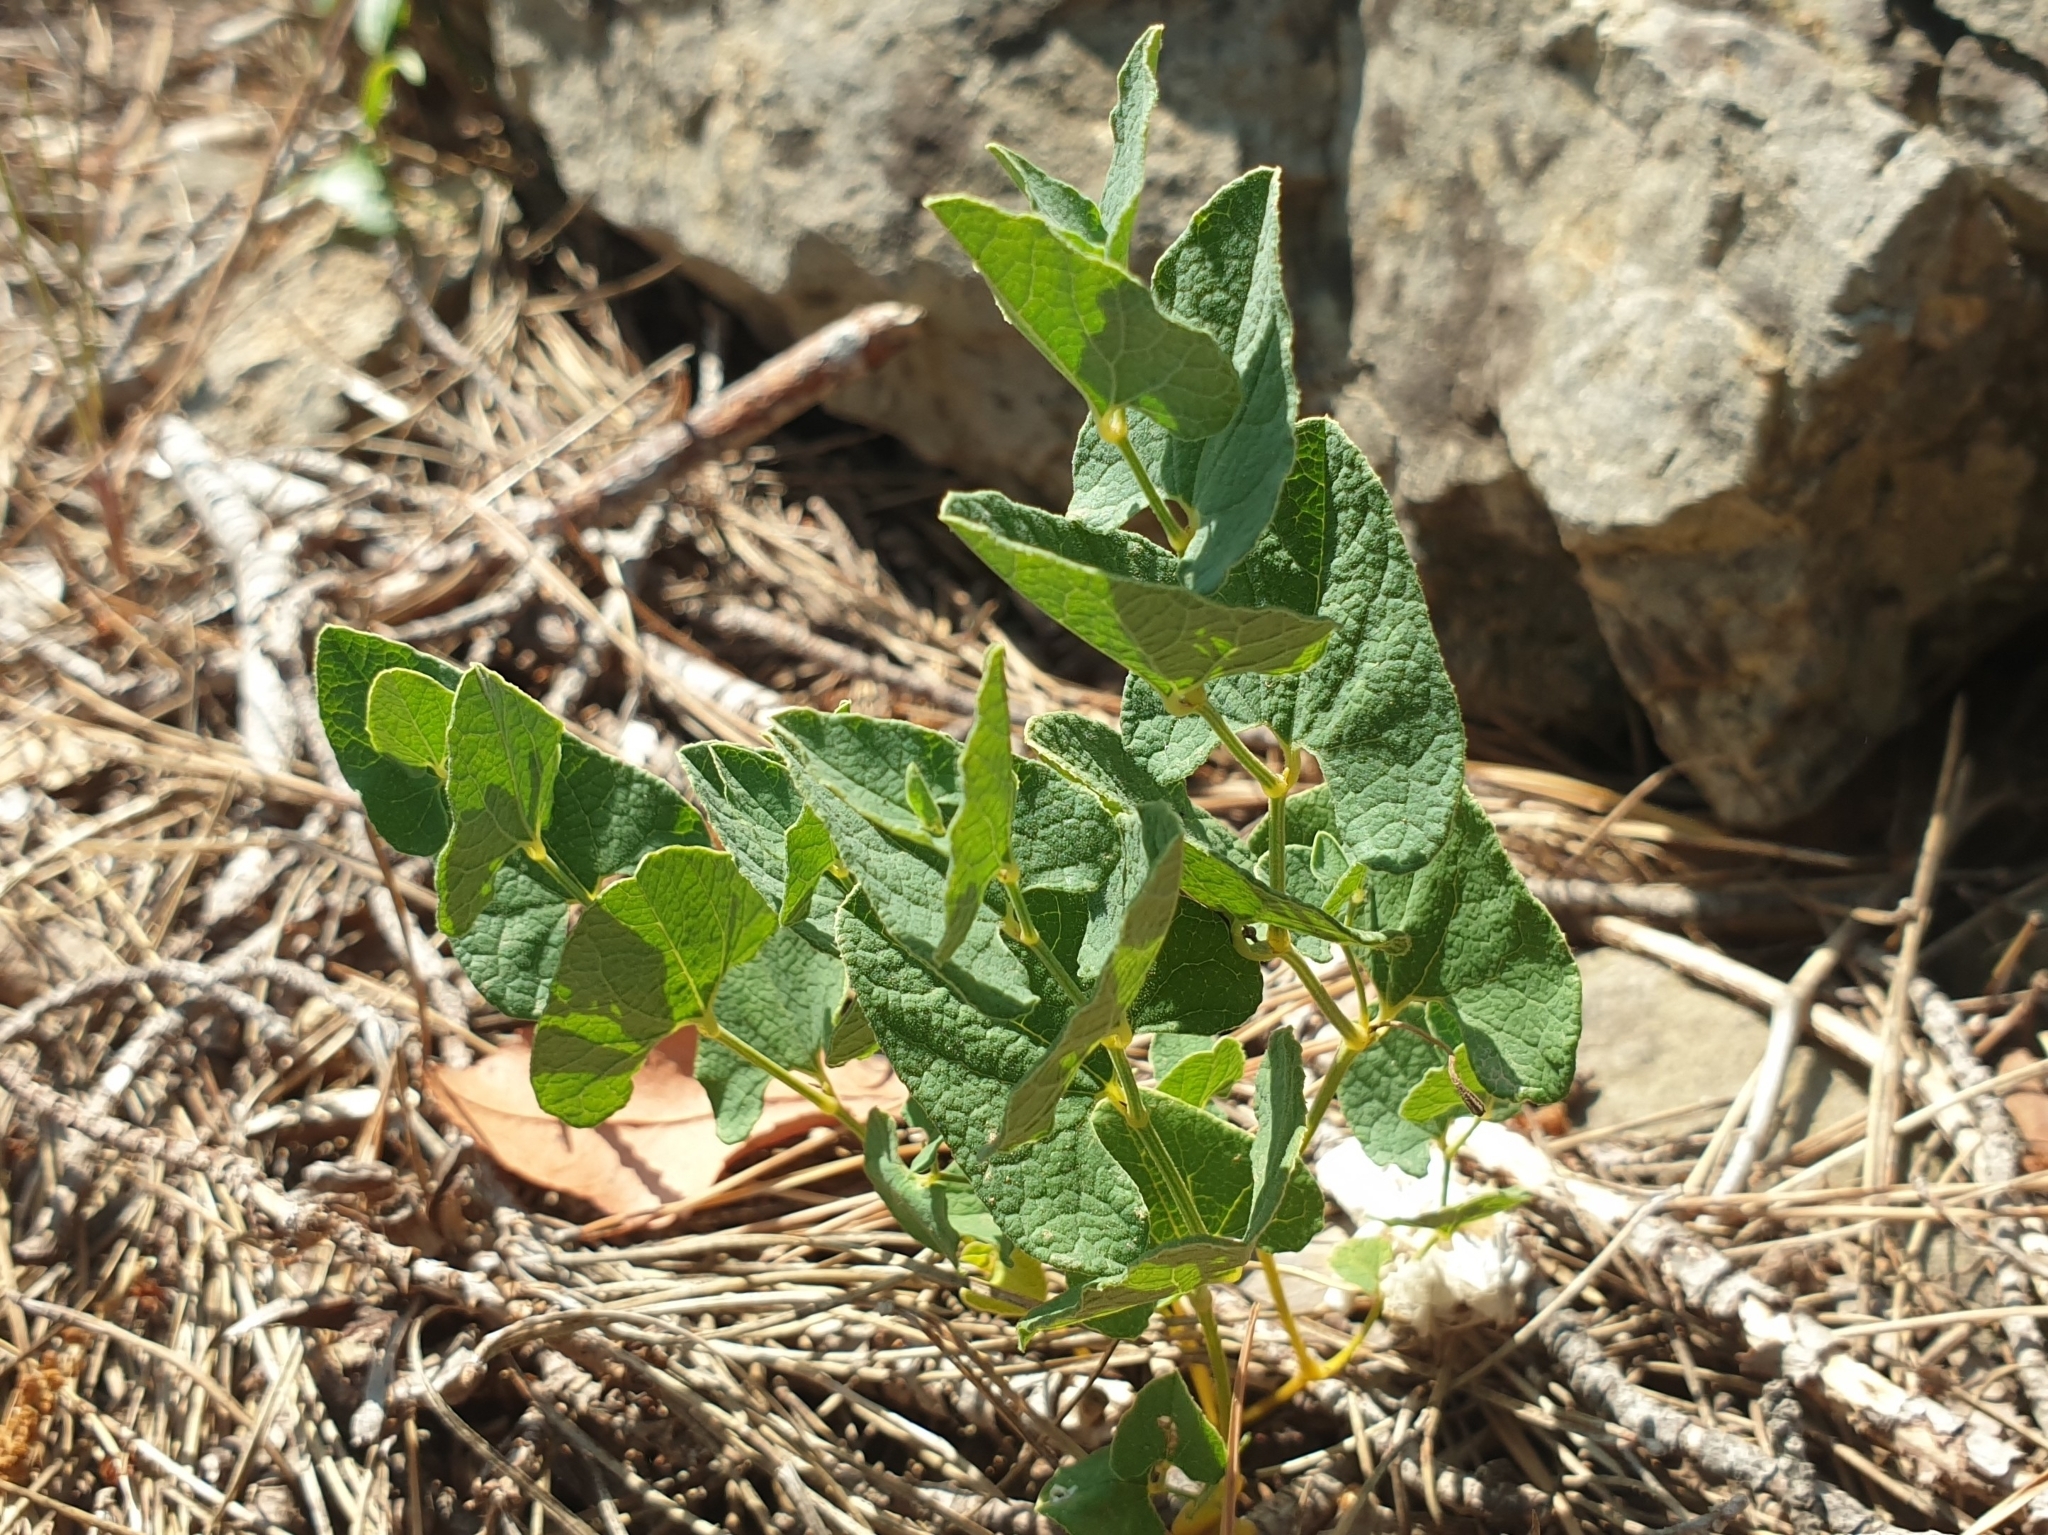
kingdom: Plantae
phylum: Tracheophyta
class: Magnoliopsida
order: Piperales
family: Aristolochiaceae
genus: Aristolochia
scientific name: Aristolochia pistolochia
